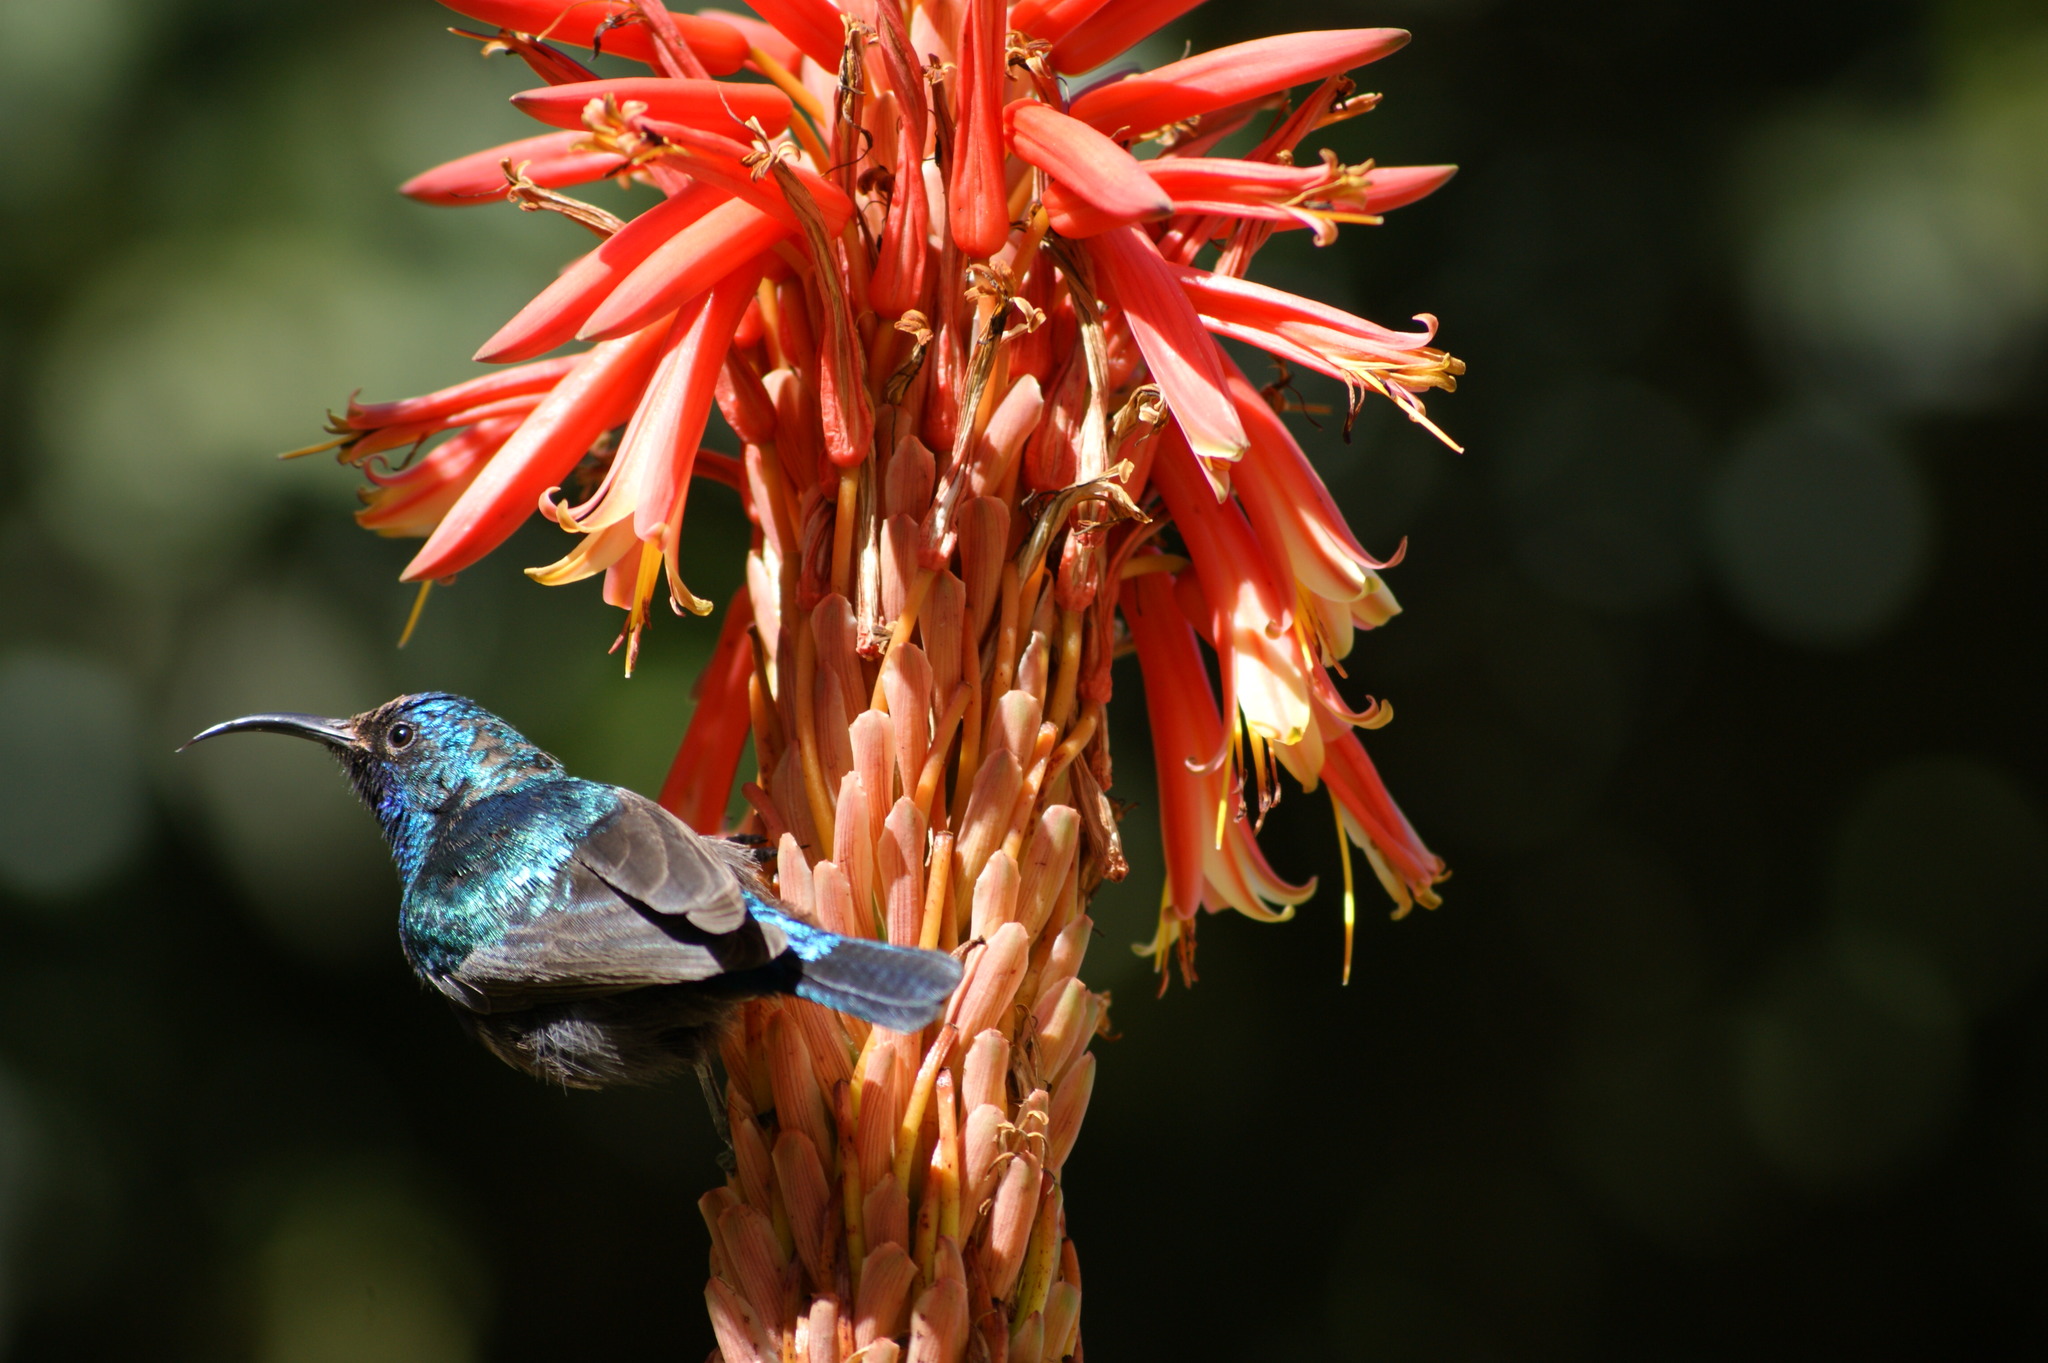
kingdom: Animalia
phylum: Chordata
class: Aves
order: Passeriformes
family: Nectariniidae
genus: Cinnyris
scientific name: Cinnyris osea
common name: Palestine sunbird
